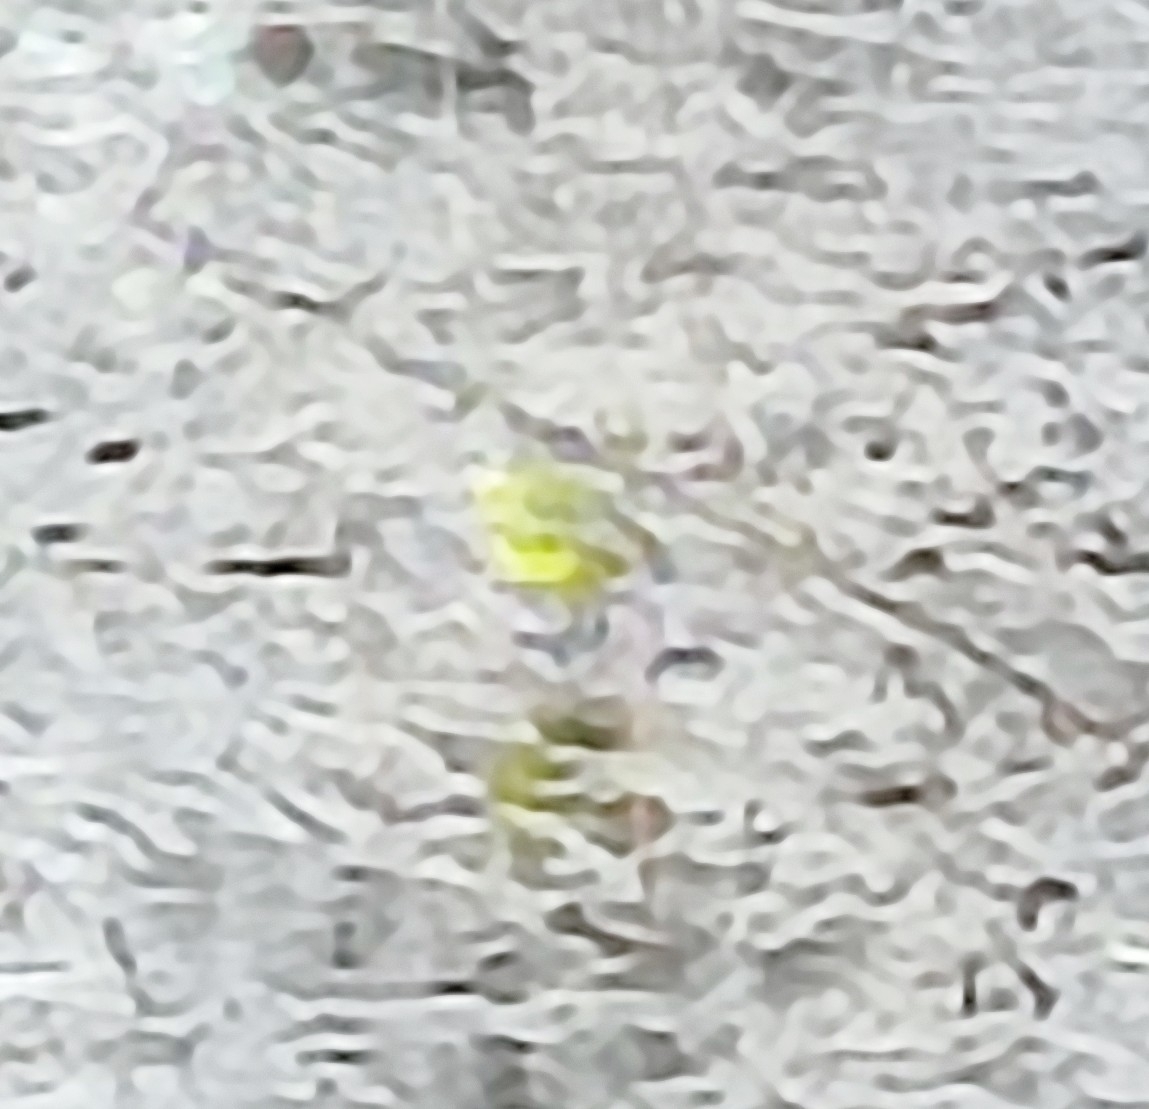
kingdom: Animalia
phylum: Chordata
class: Aves
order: Passeriformes
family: Motacillidae
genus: Motacilla
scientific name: Motacilla flava
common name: Western yellow wagtail
